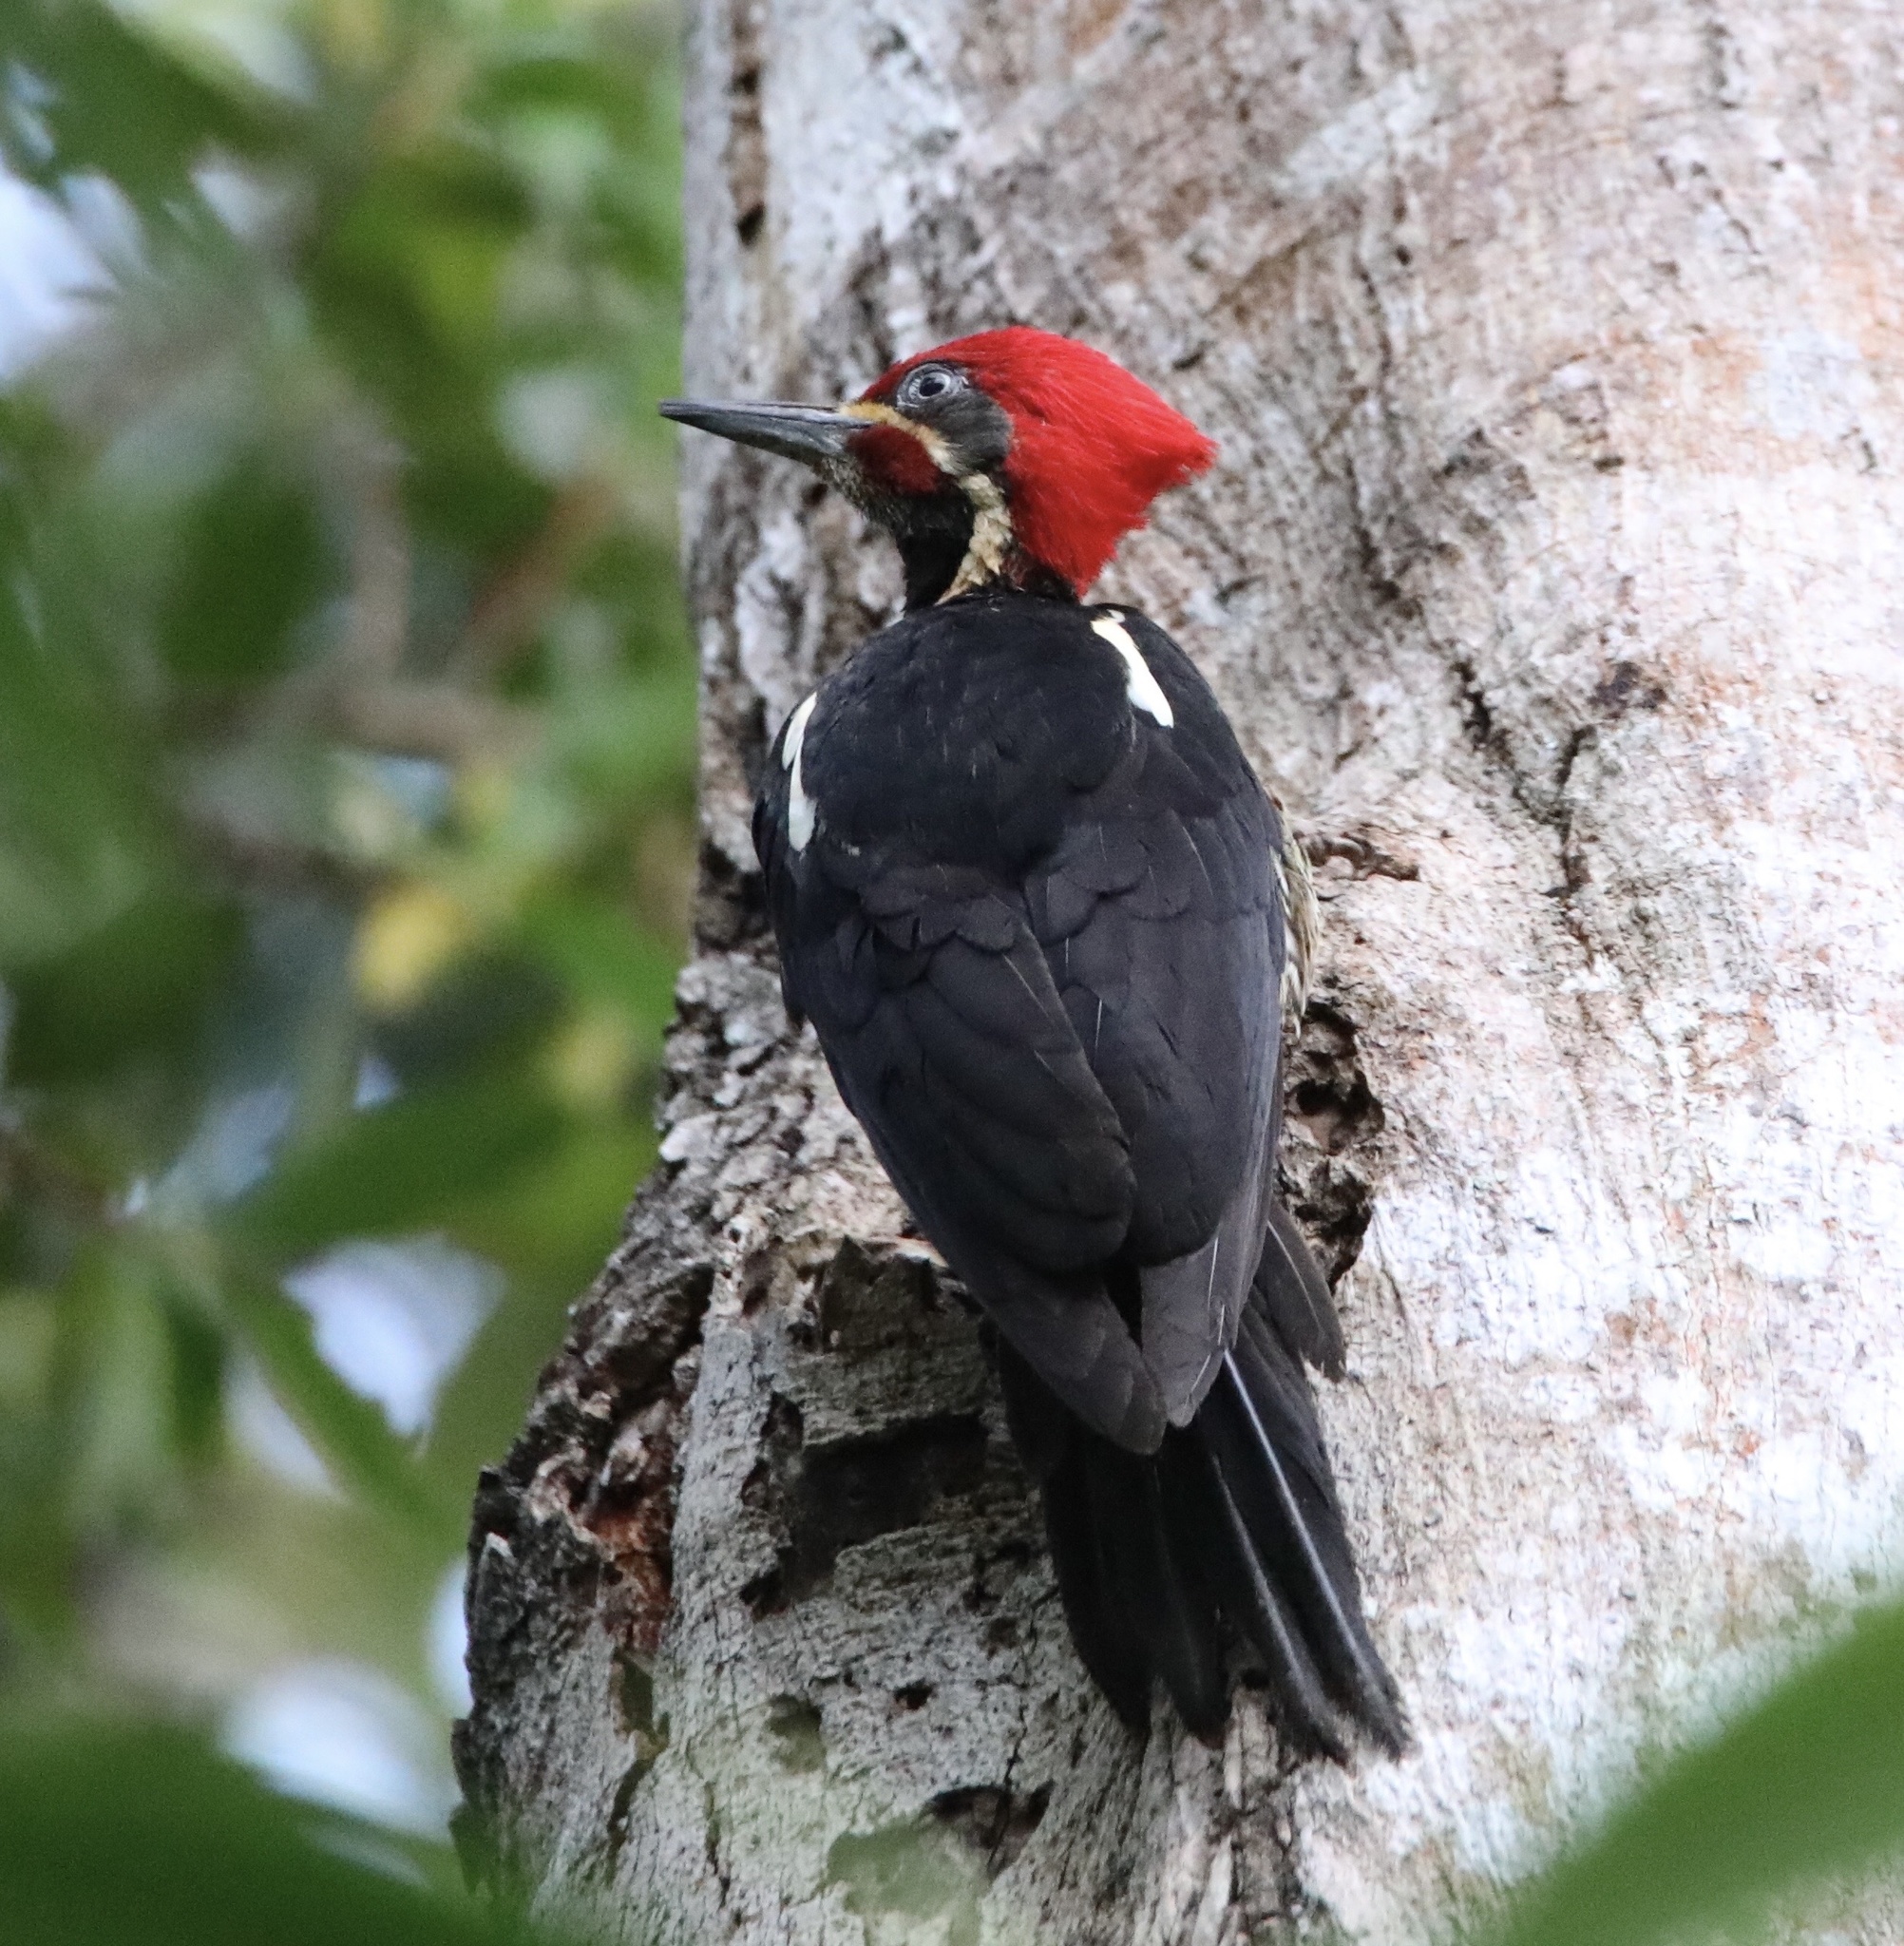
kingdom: Animalia
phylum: Chordata
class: Aves
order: Piciformes
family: Picidae
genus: Dryocopus
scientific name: Dryocopus lineatus
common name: Lineated woodpecker
